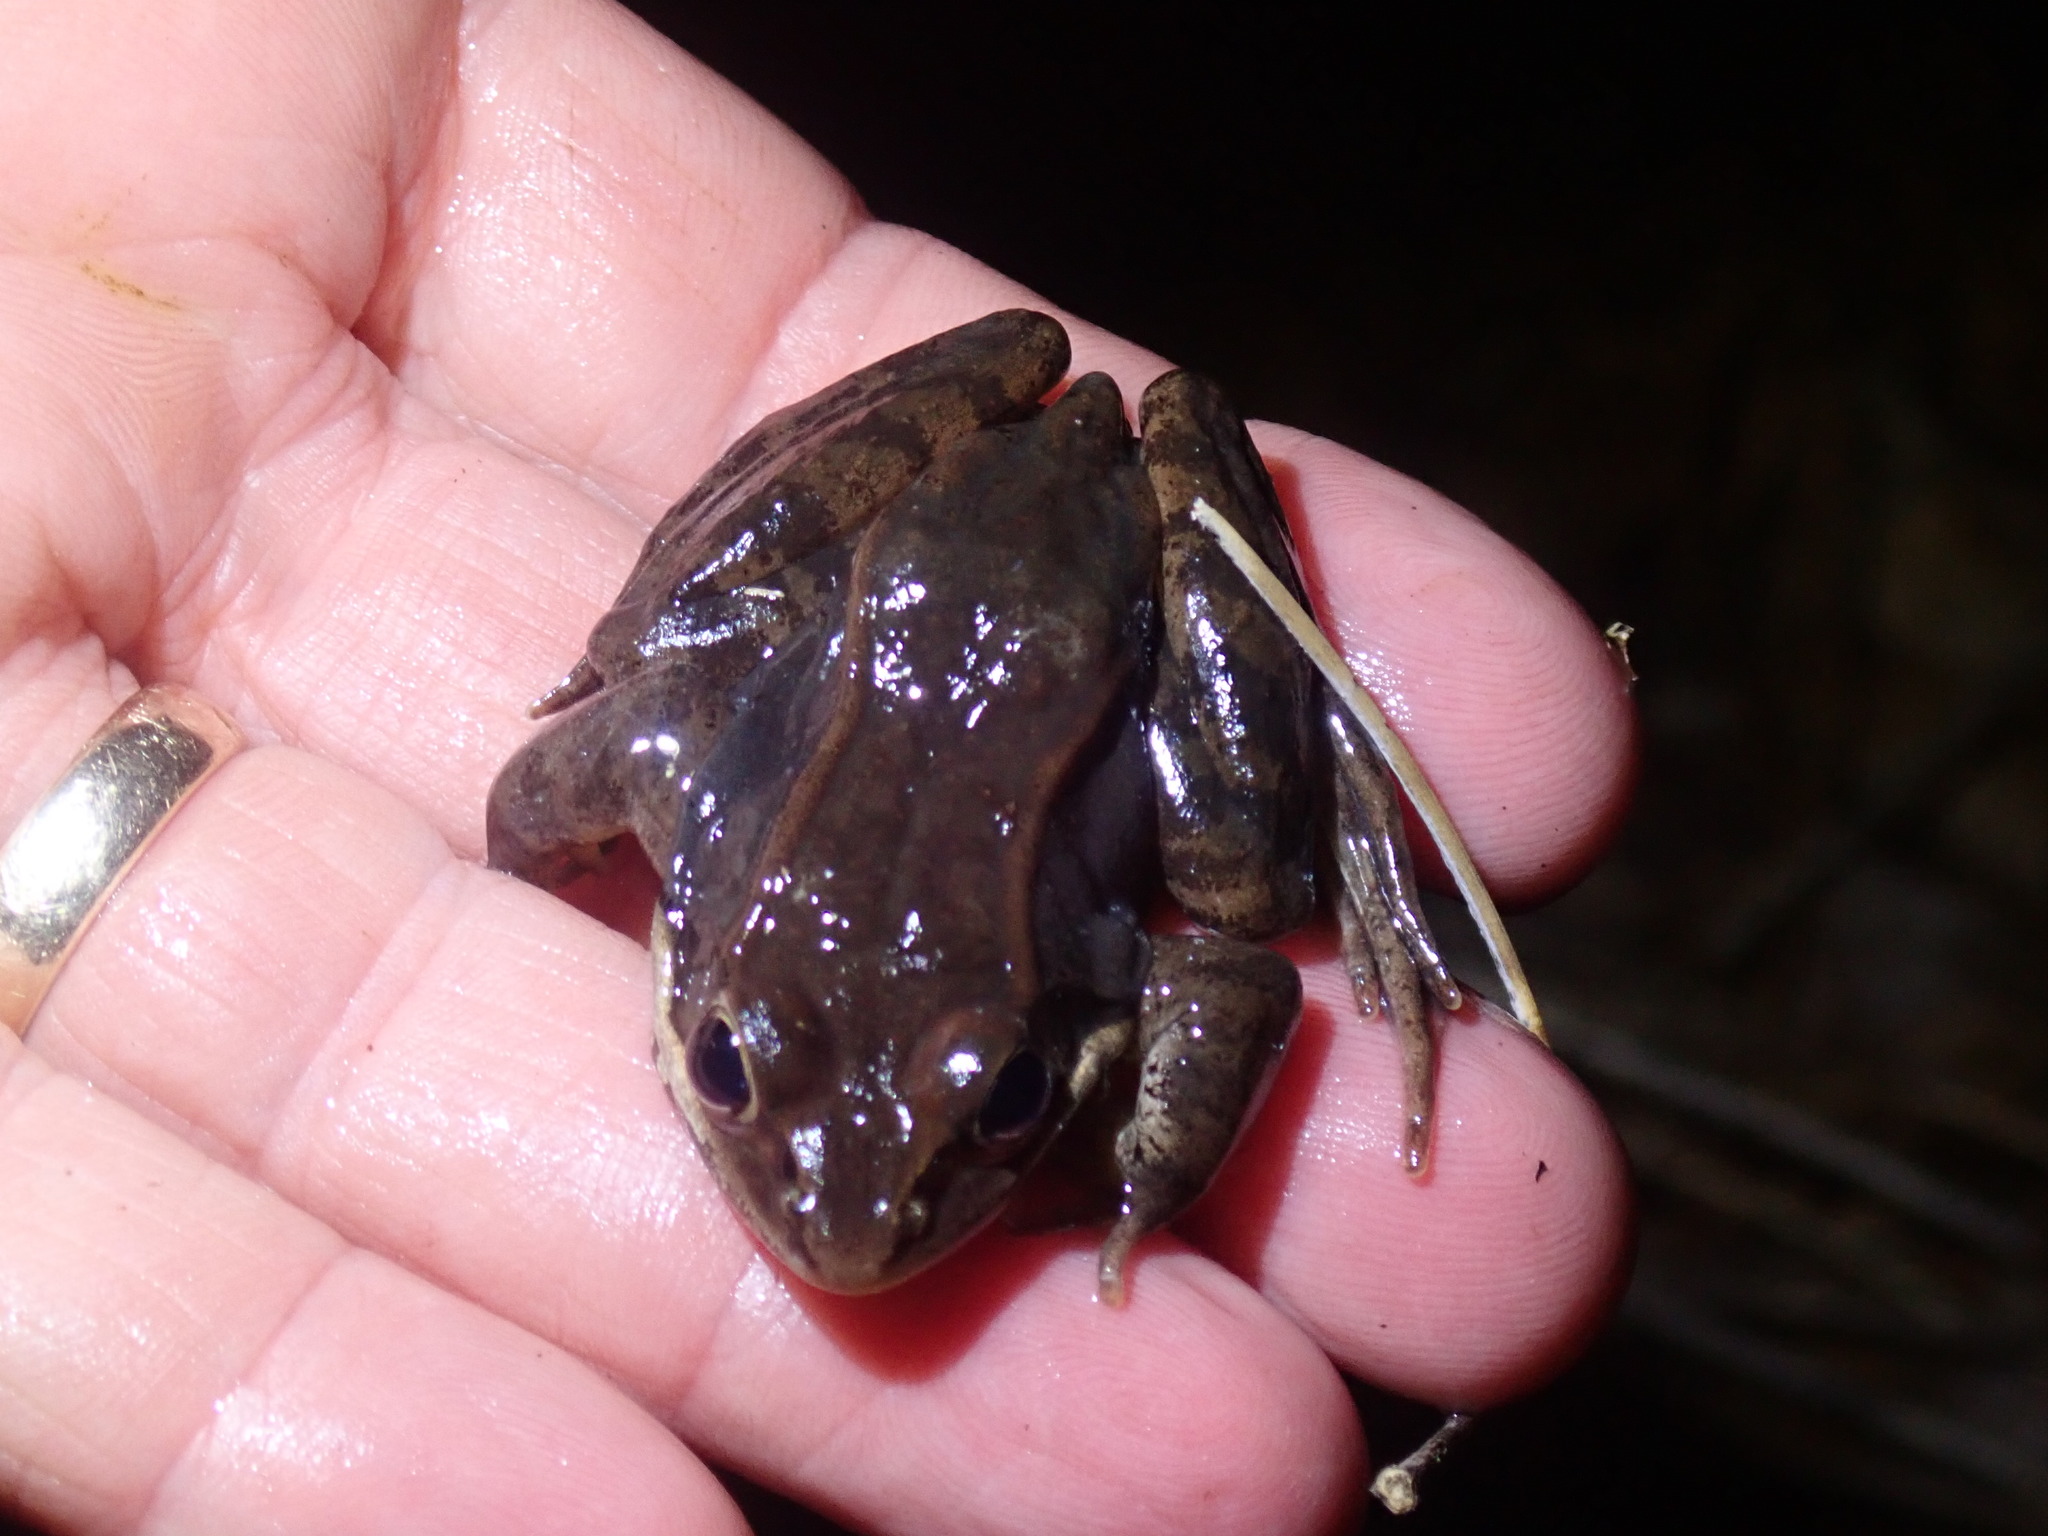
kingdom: Animalia
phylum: Chordata
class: Amphibia
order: Anura
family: Ranidae
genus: Lithobates
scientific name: Lithobates sylvaticus
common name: Wood frog
